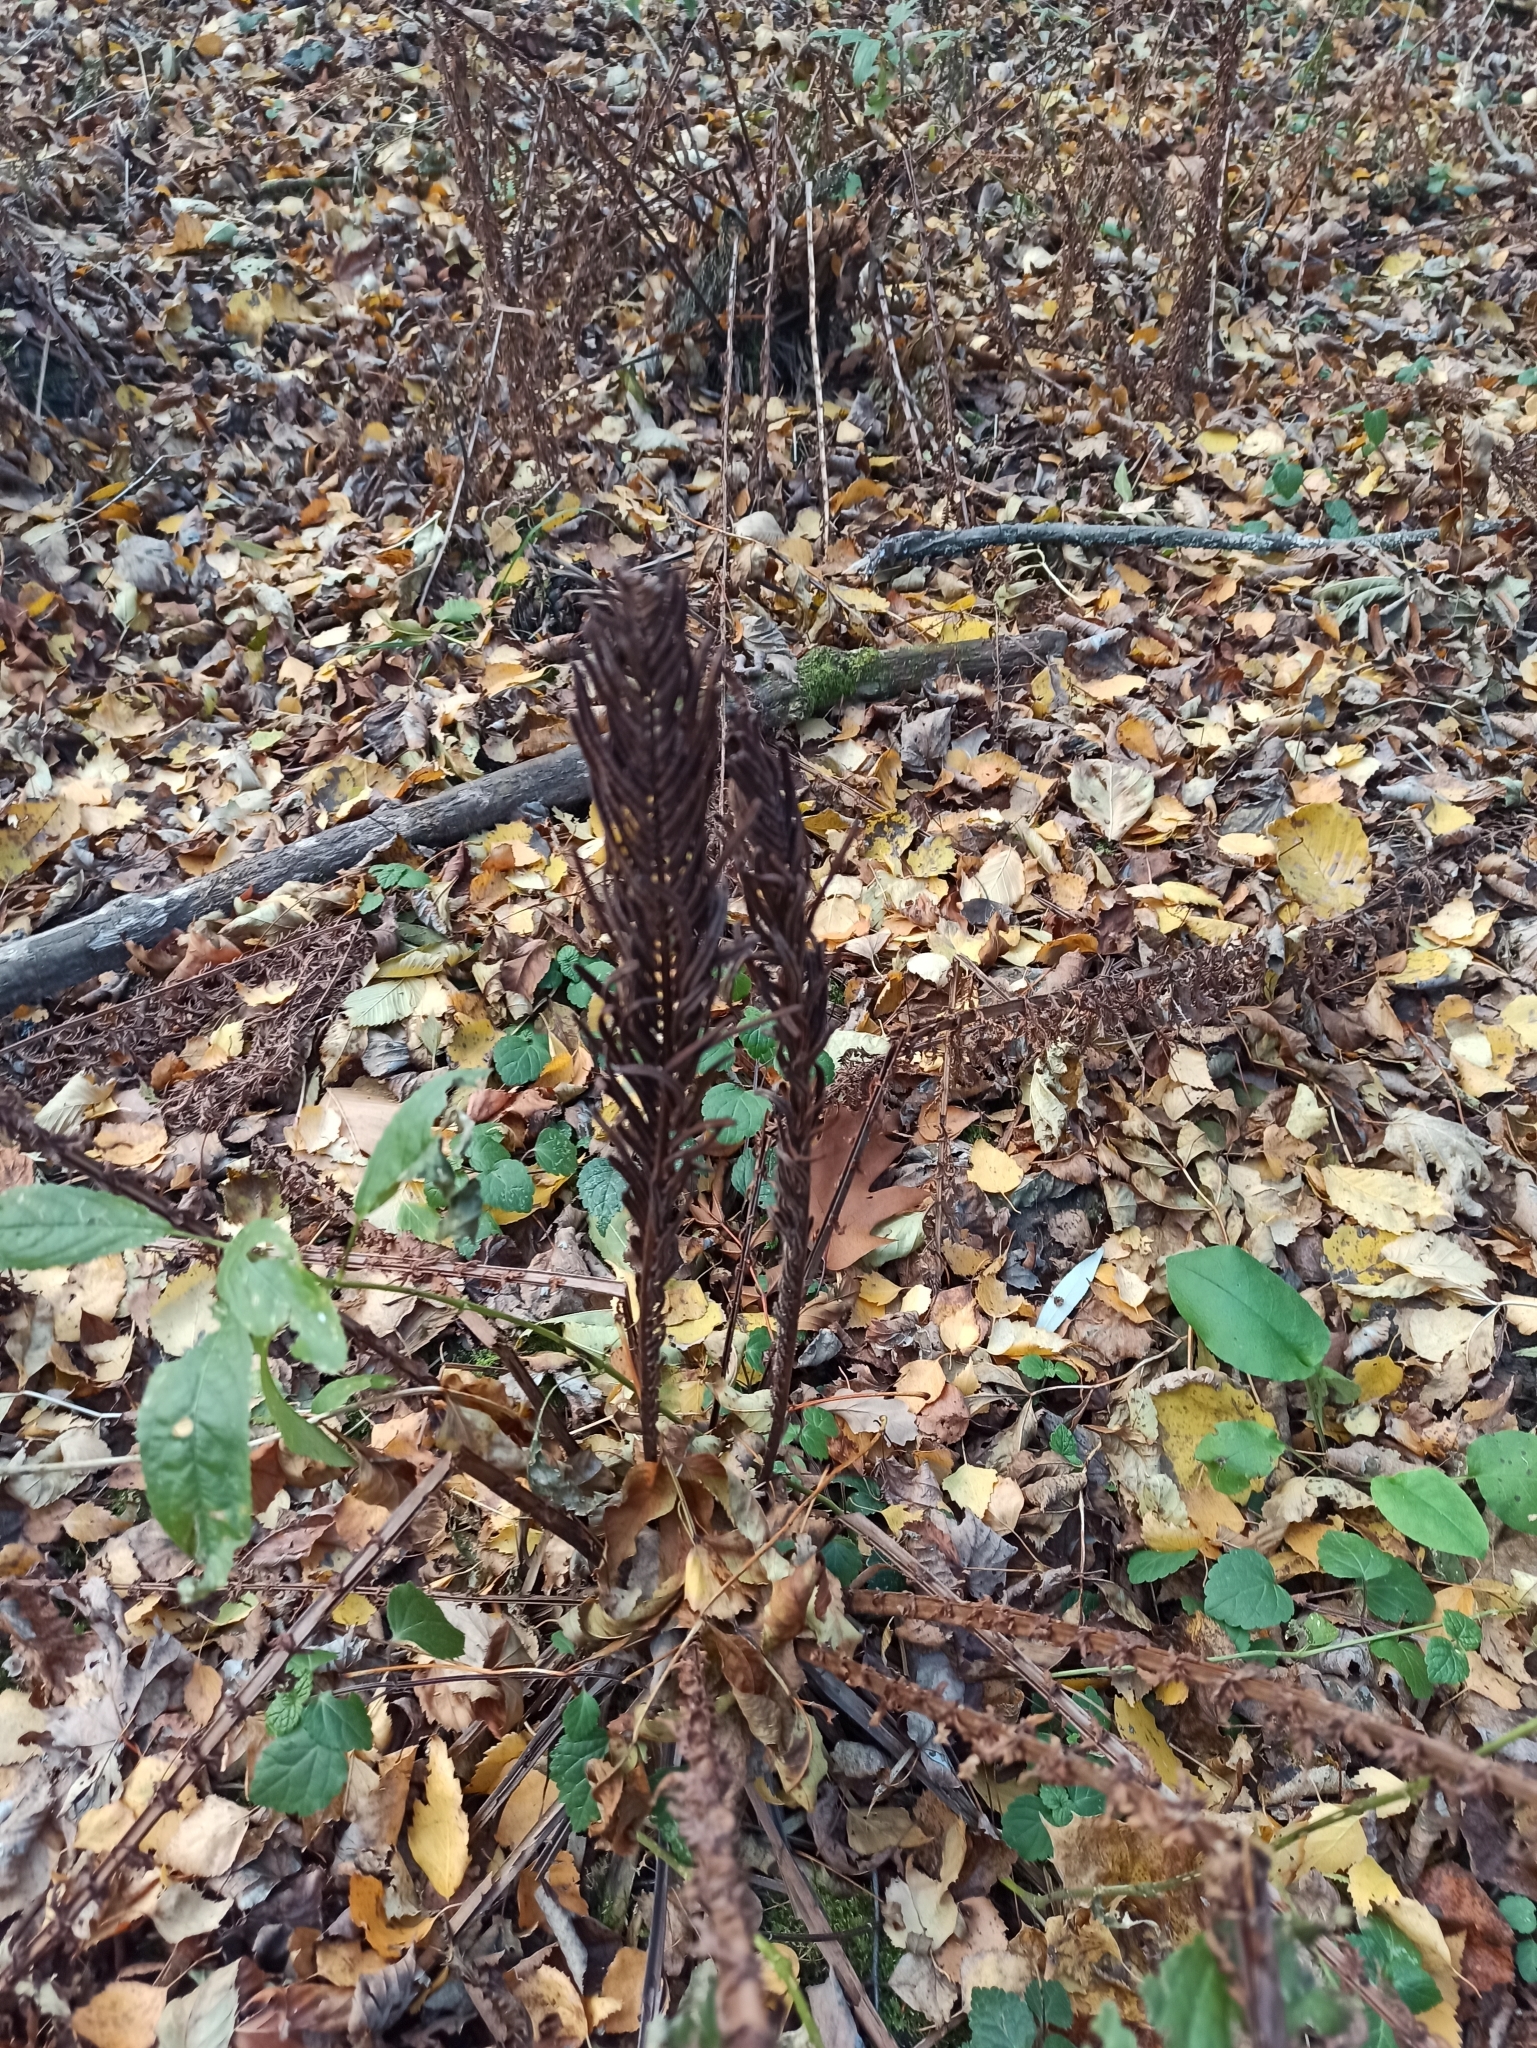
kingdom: Plantae
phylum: Tracheophyta
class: Polypodiopsida
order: Polypodiales
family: Onocleaceae
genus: Matteuccia
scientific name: Matteuccia struthiopteris
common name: Ostrich fern
